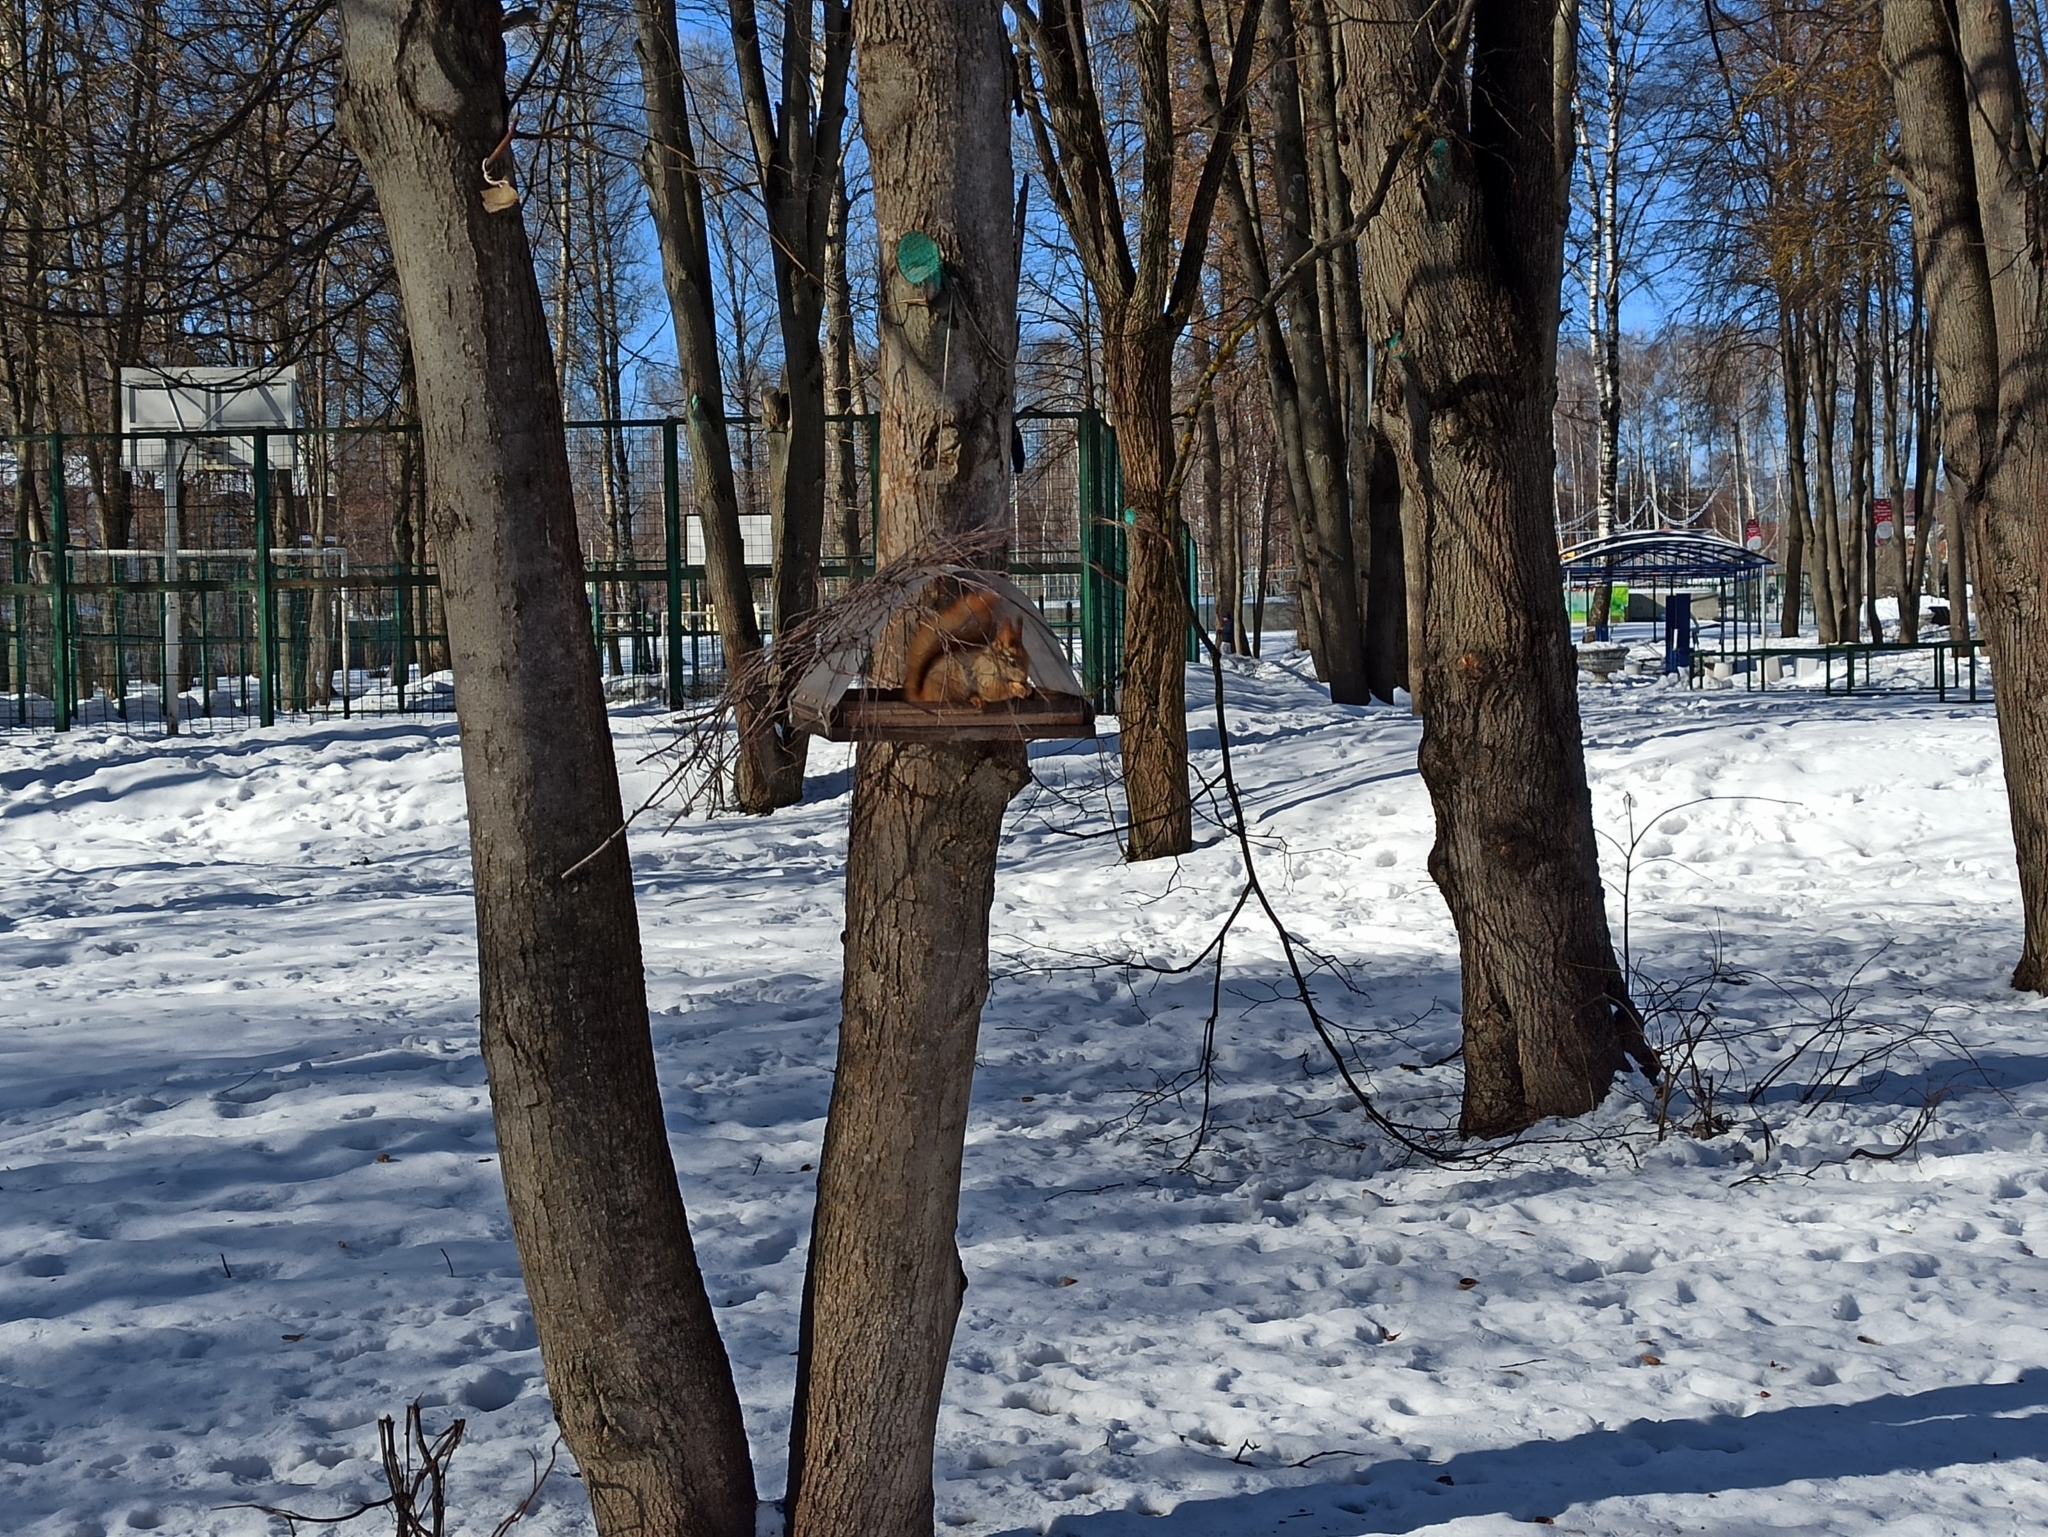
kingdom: Animalia
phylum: Chordata
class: Mammalia
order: Rodentia
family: Sciuridae
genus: Sciurus
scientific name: Sciurus vulgaris
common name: Eurasian red squirrel
